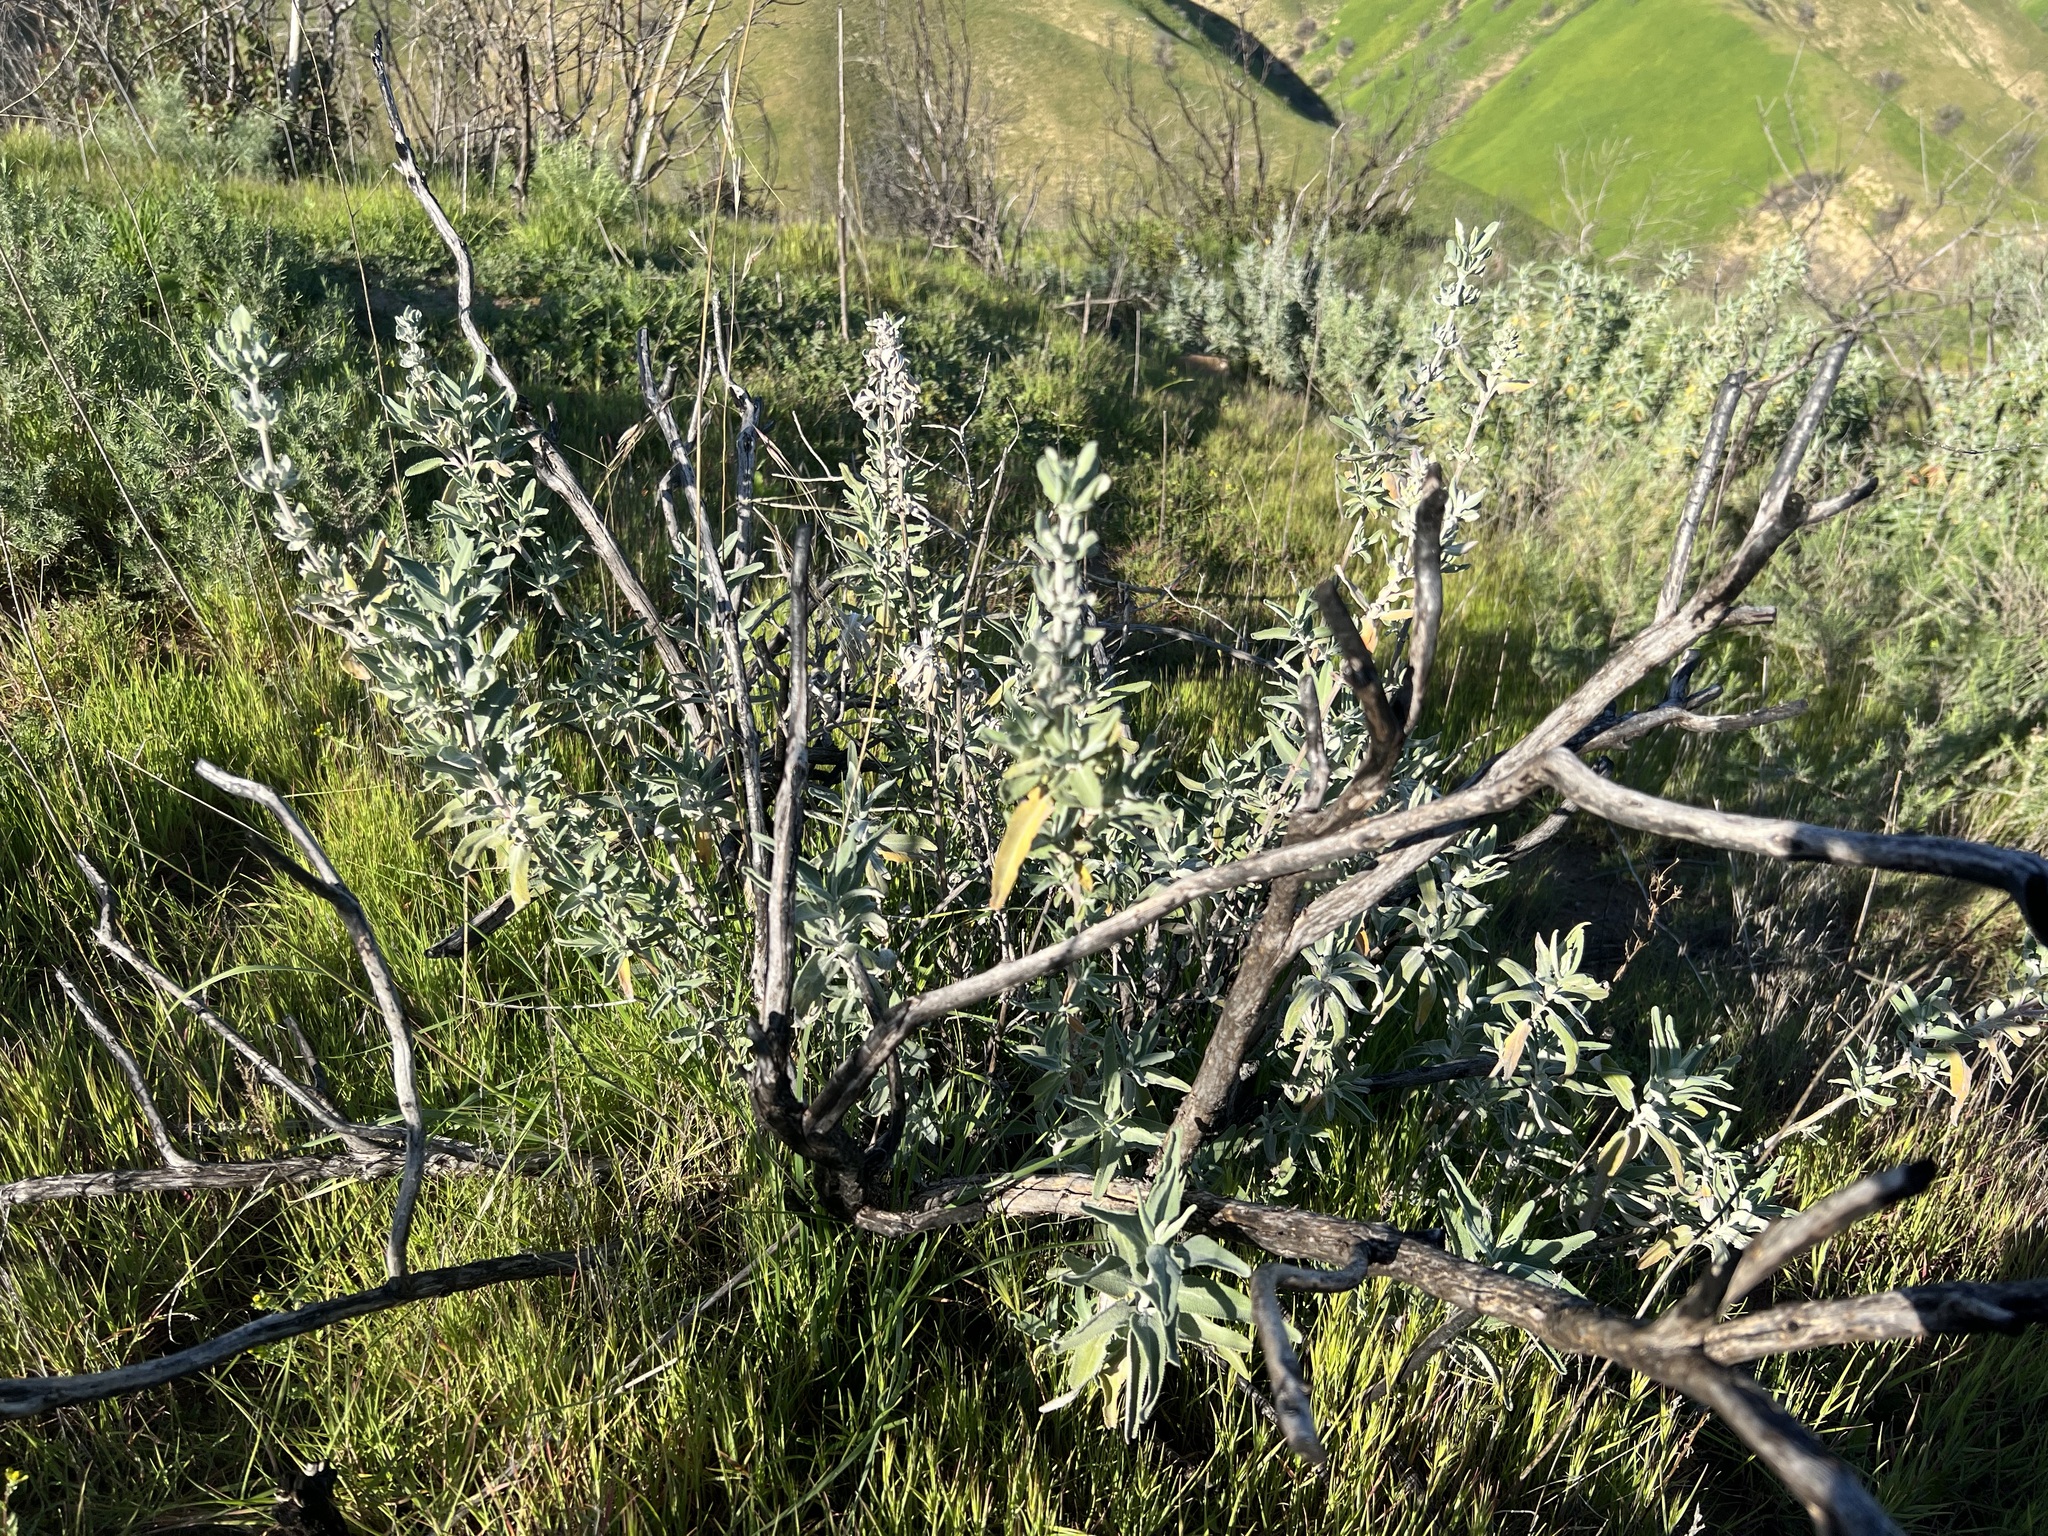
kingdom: Plantae
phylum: Tracheophyta
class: Magnoliopsida
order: Lamiales
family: Lamiaceae
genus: Salvia
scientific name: Salvia leucophylla
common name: Purple sage
